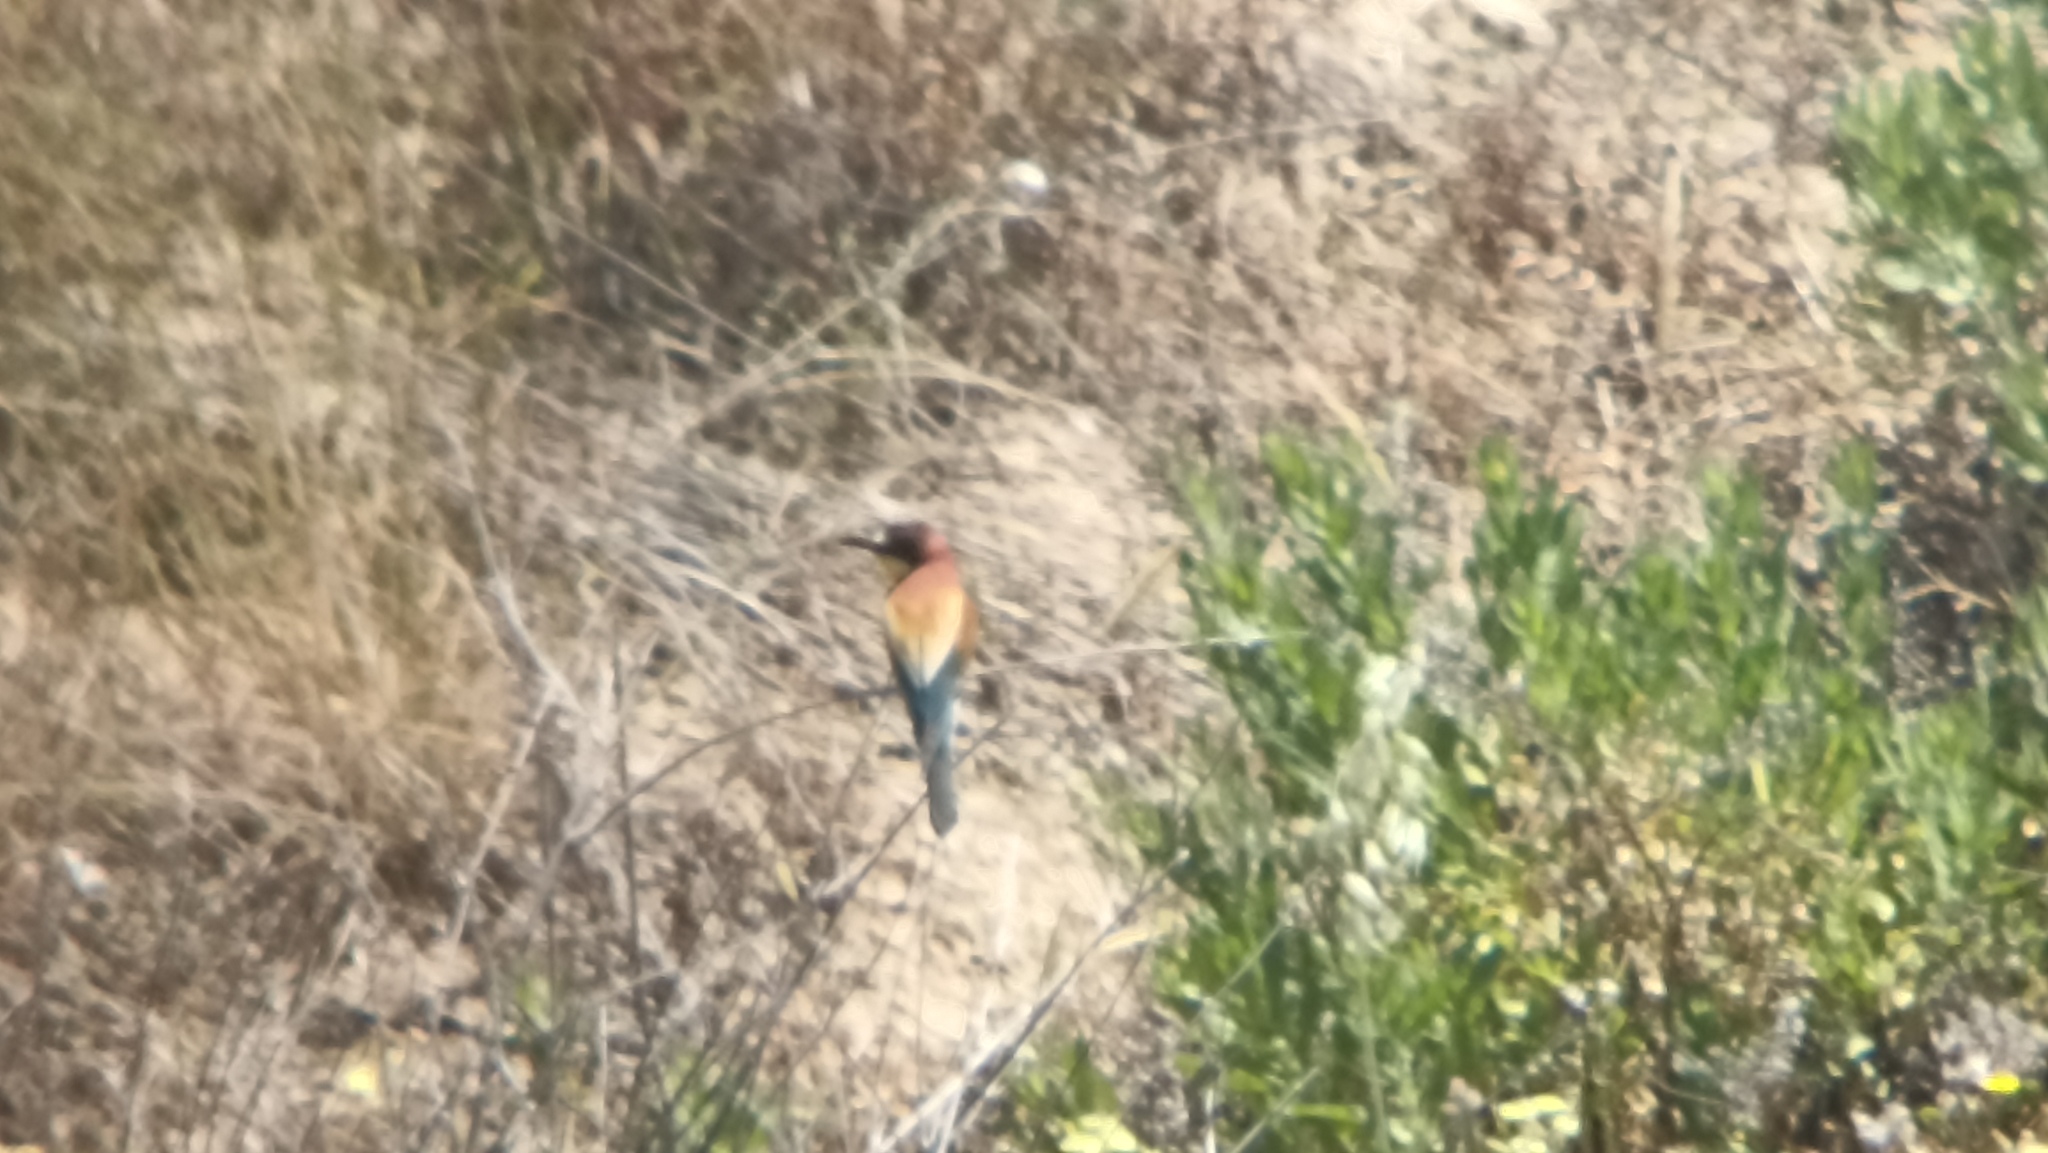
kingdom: Animalia
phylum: Chordata
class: Aves
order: Coraciiformes
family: Meropidae
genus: Merops
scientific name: Merops apiaster
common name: European bee-eater
